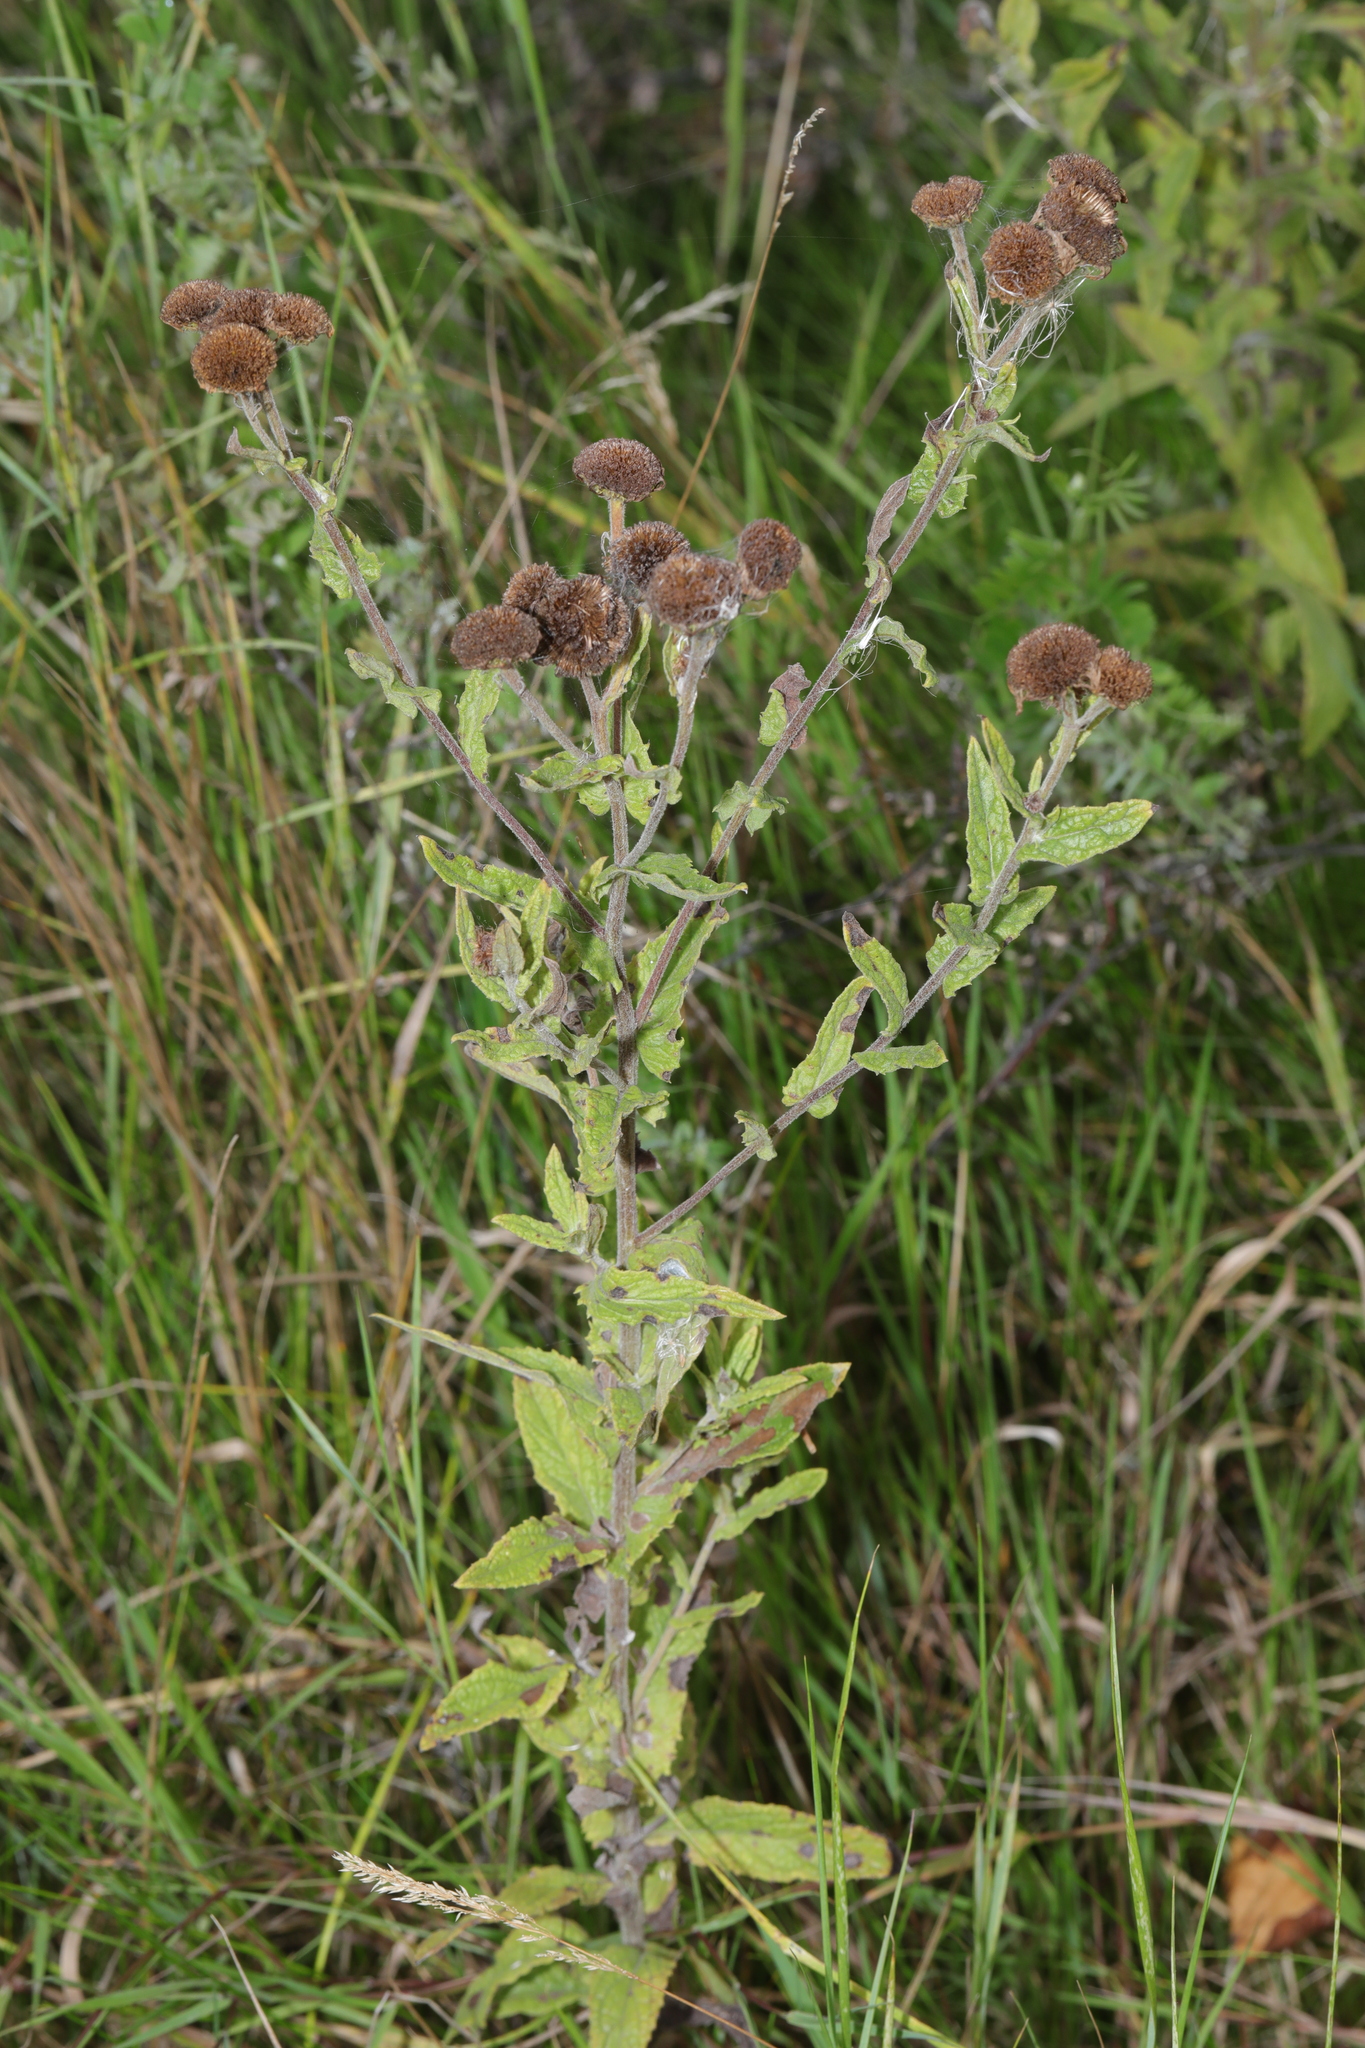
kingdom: Plantae
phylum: Tracheophyta
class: Magnoliopsida
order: Asterales
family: Asteraceae
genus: Pulicaria
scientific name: Pulicaria dysenterica
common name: Common fleabane
